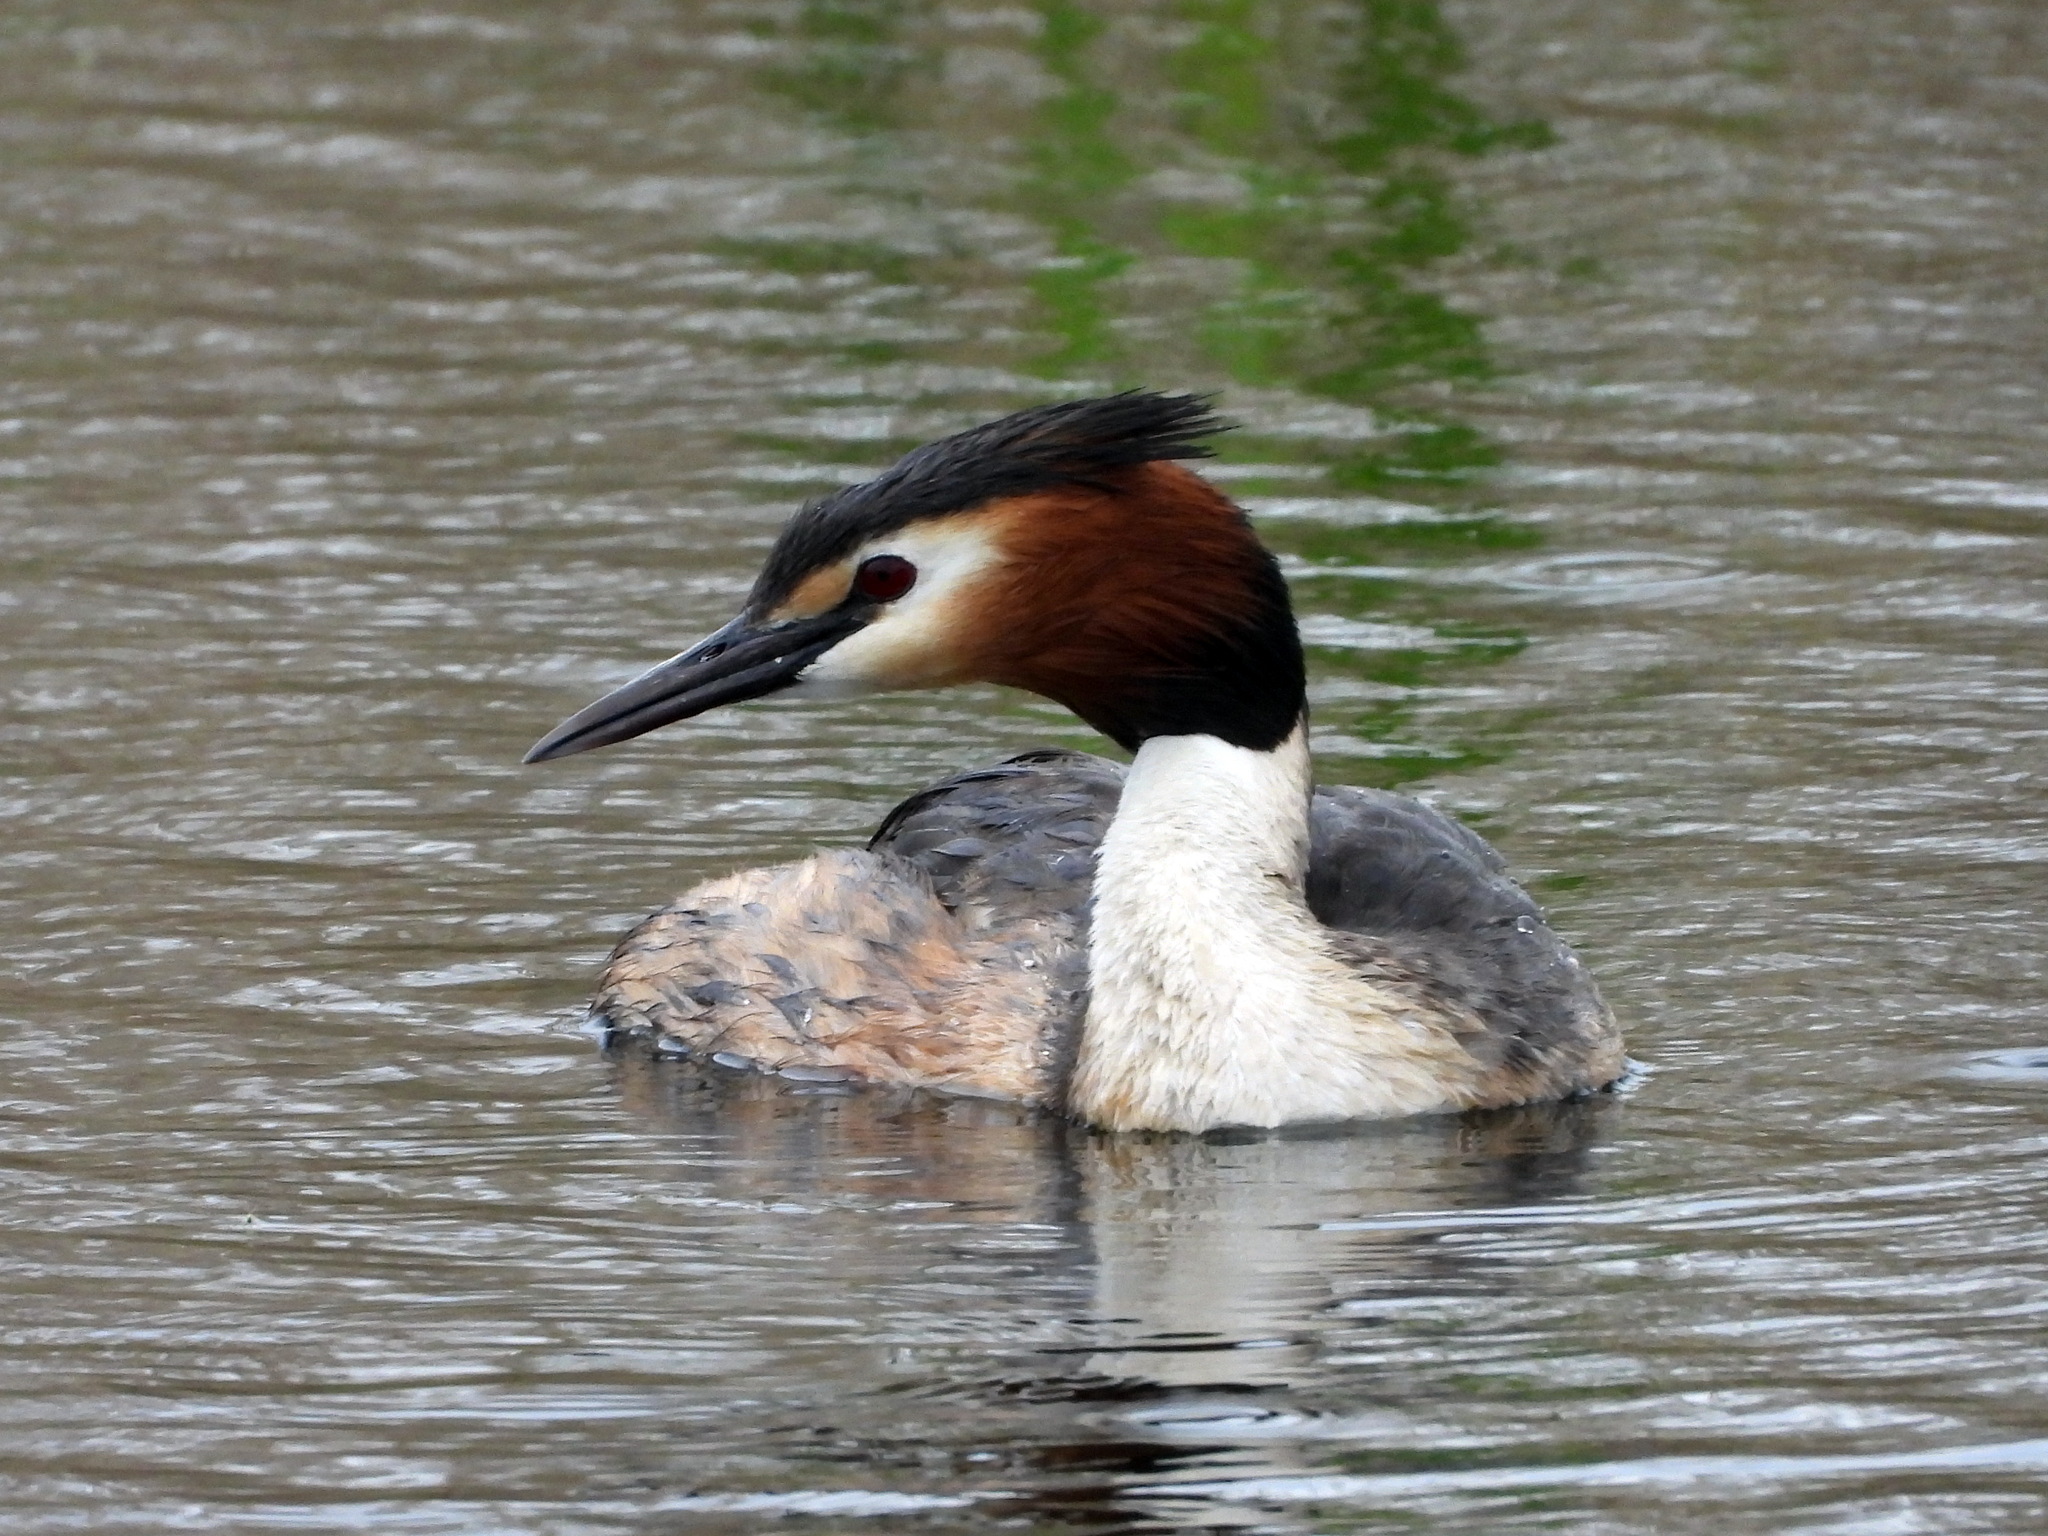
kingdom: Animalia
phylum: Chordata
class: Aves
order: Podicipediformes
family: Podicipedidae
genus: Podiceps
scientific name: Podiceps cristatus
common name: Great crested grebe
